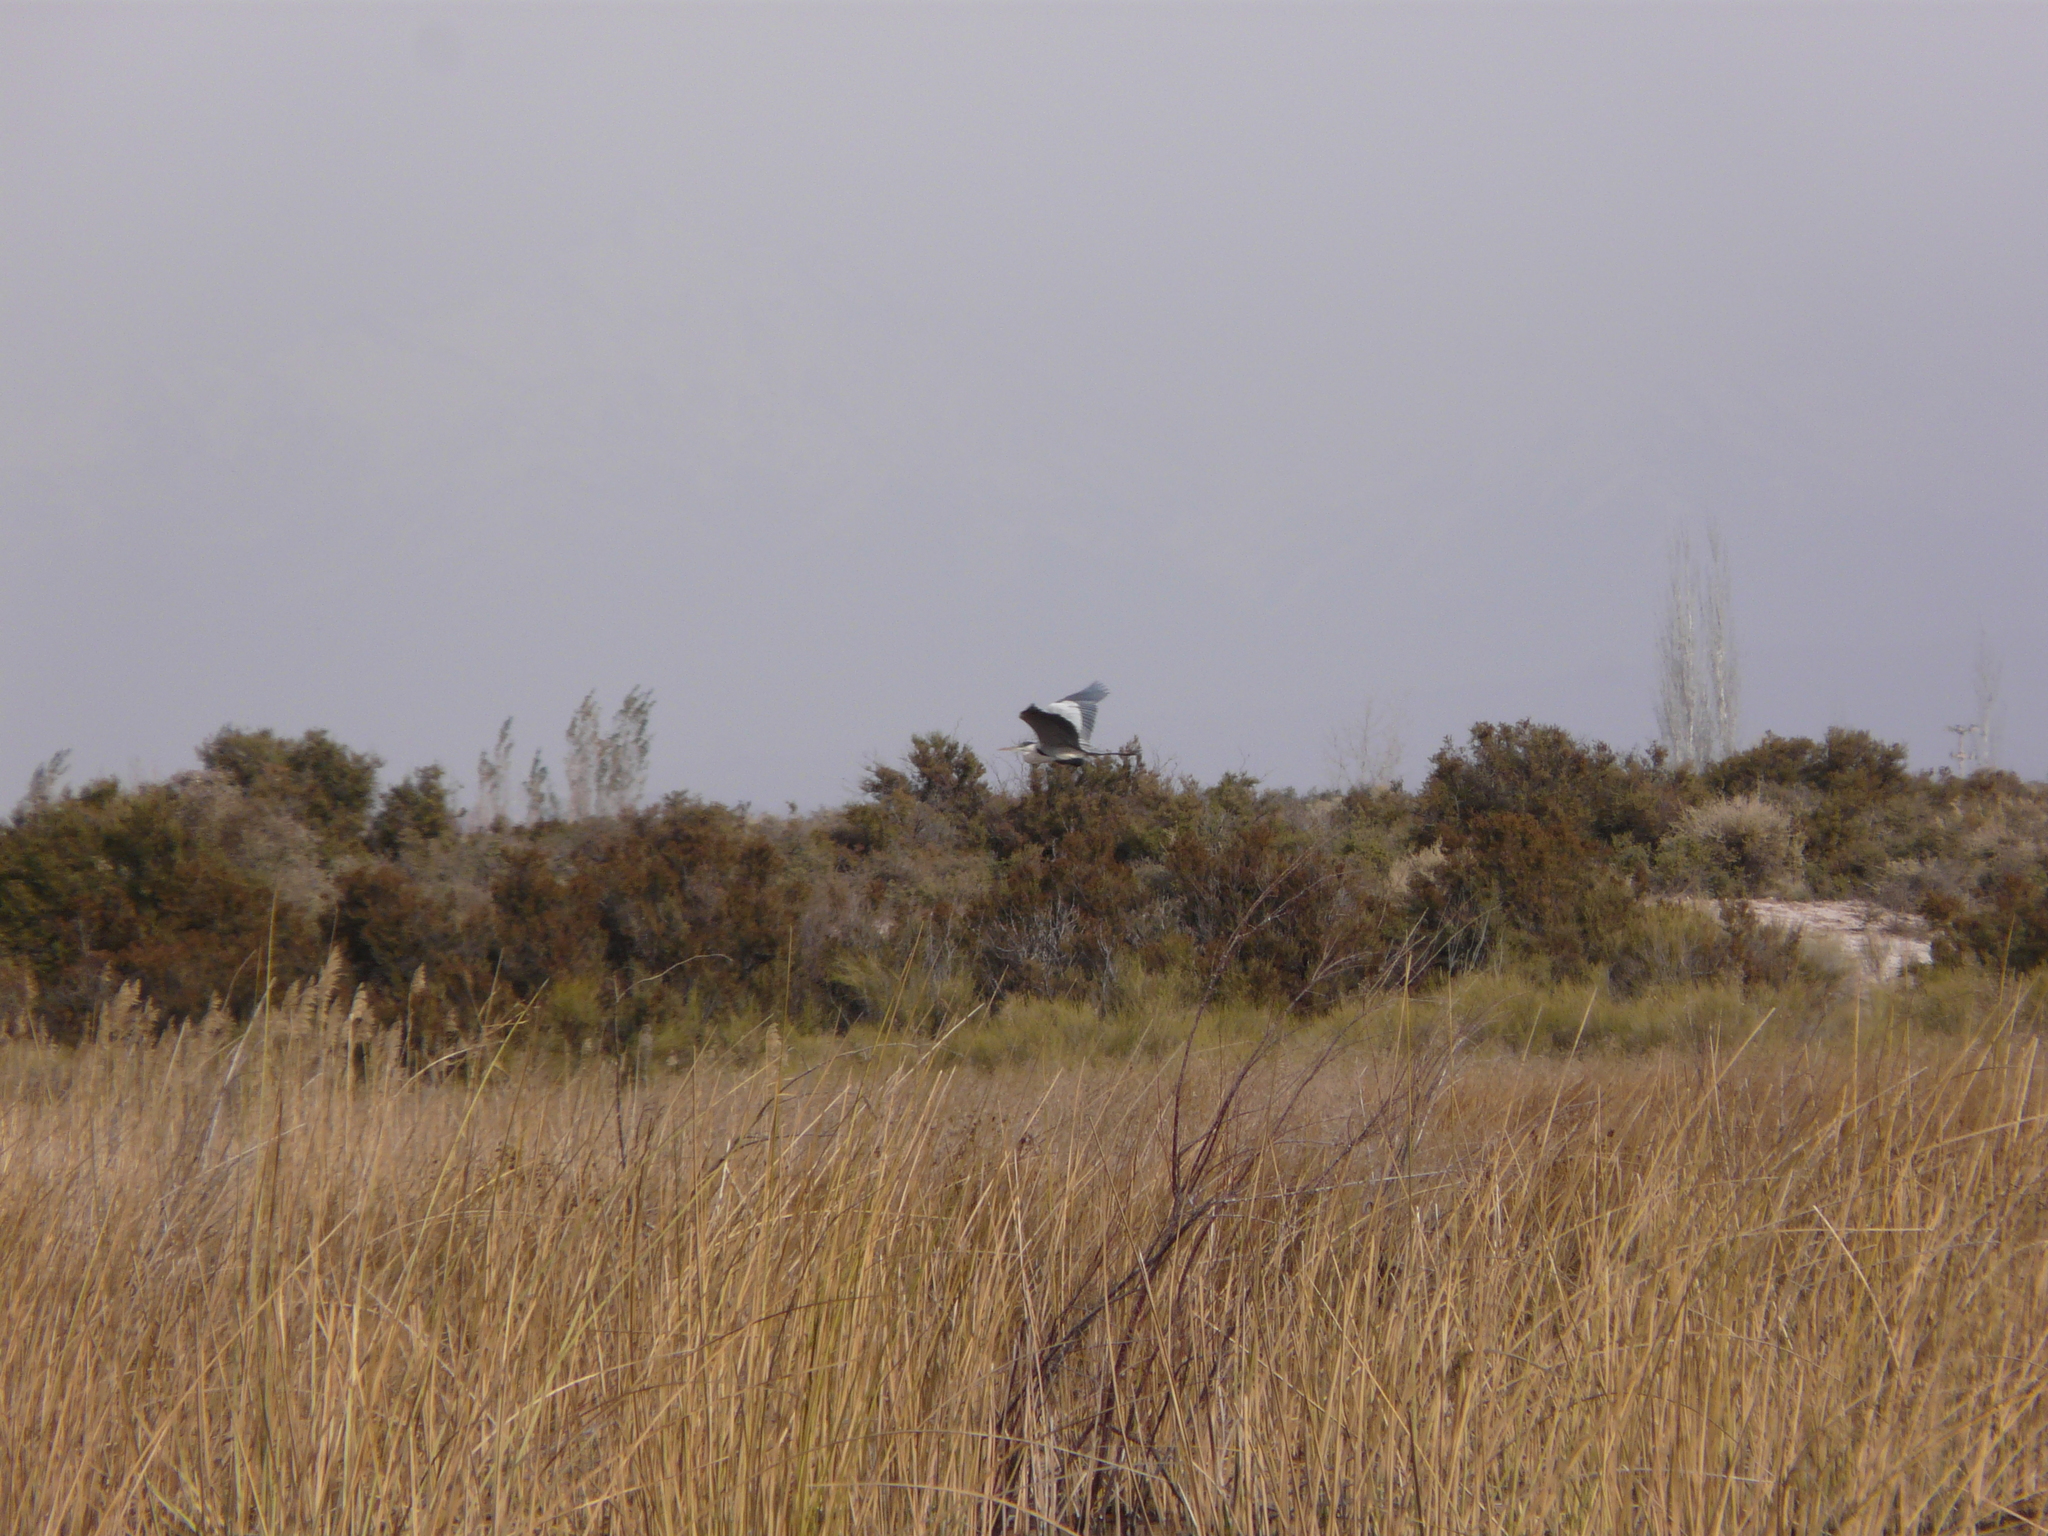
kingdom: Animalia
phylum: Chordata
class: Aves
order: Pelecaniformes
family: Ardeidae
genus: Ardea
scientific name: Ardea cocoi
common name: Cocoi heron
